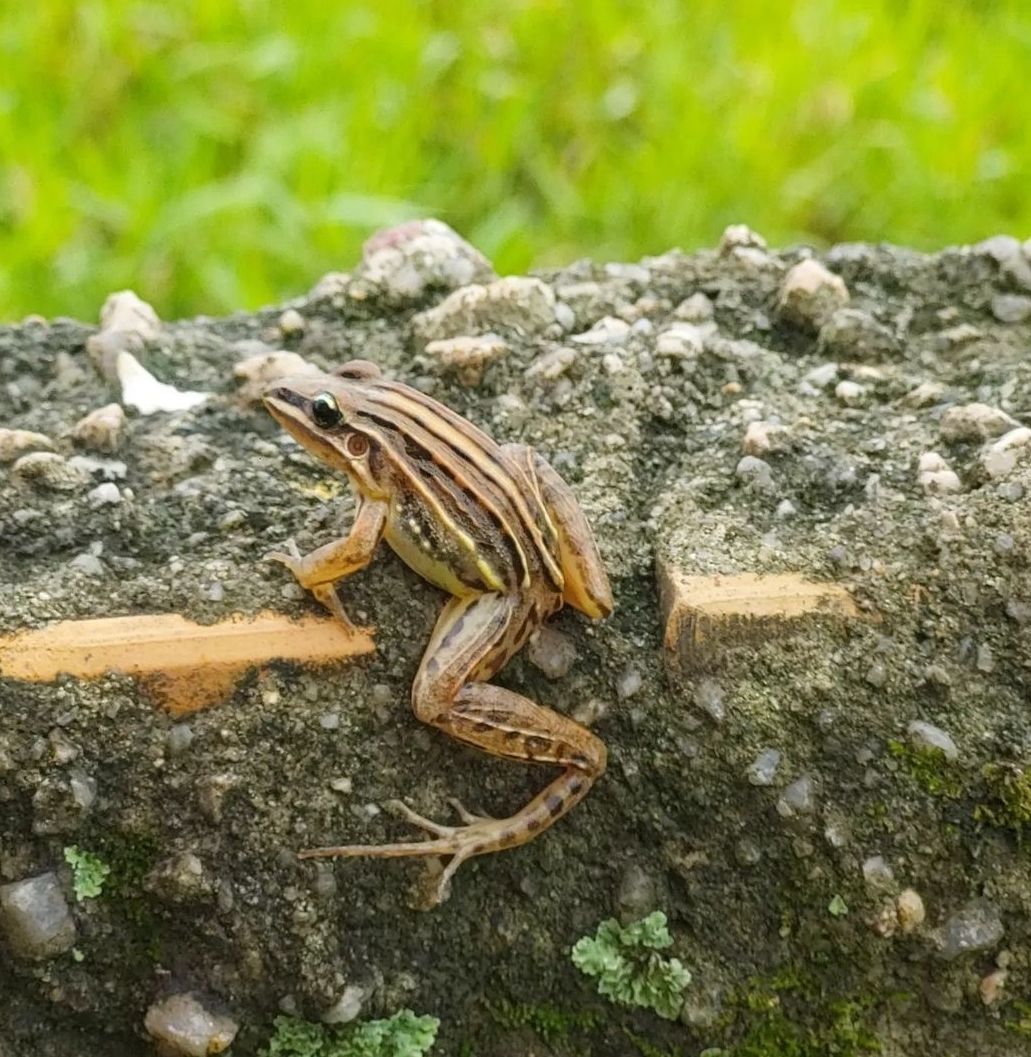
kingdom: Animalia
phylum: Chordata
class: Amphibia
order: Anura
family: Leptodactylidae
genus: Leptodactylus
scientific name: Leptodactylus gracilis
